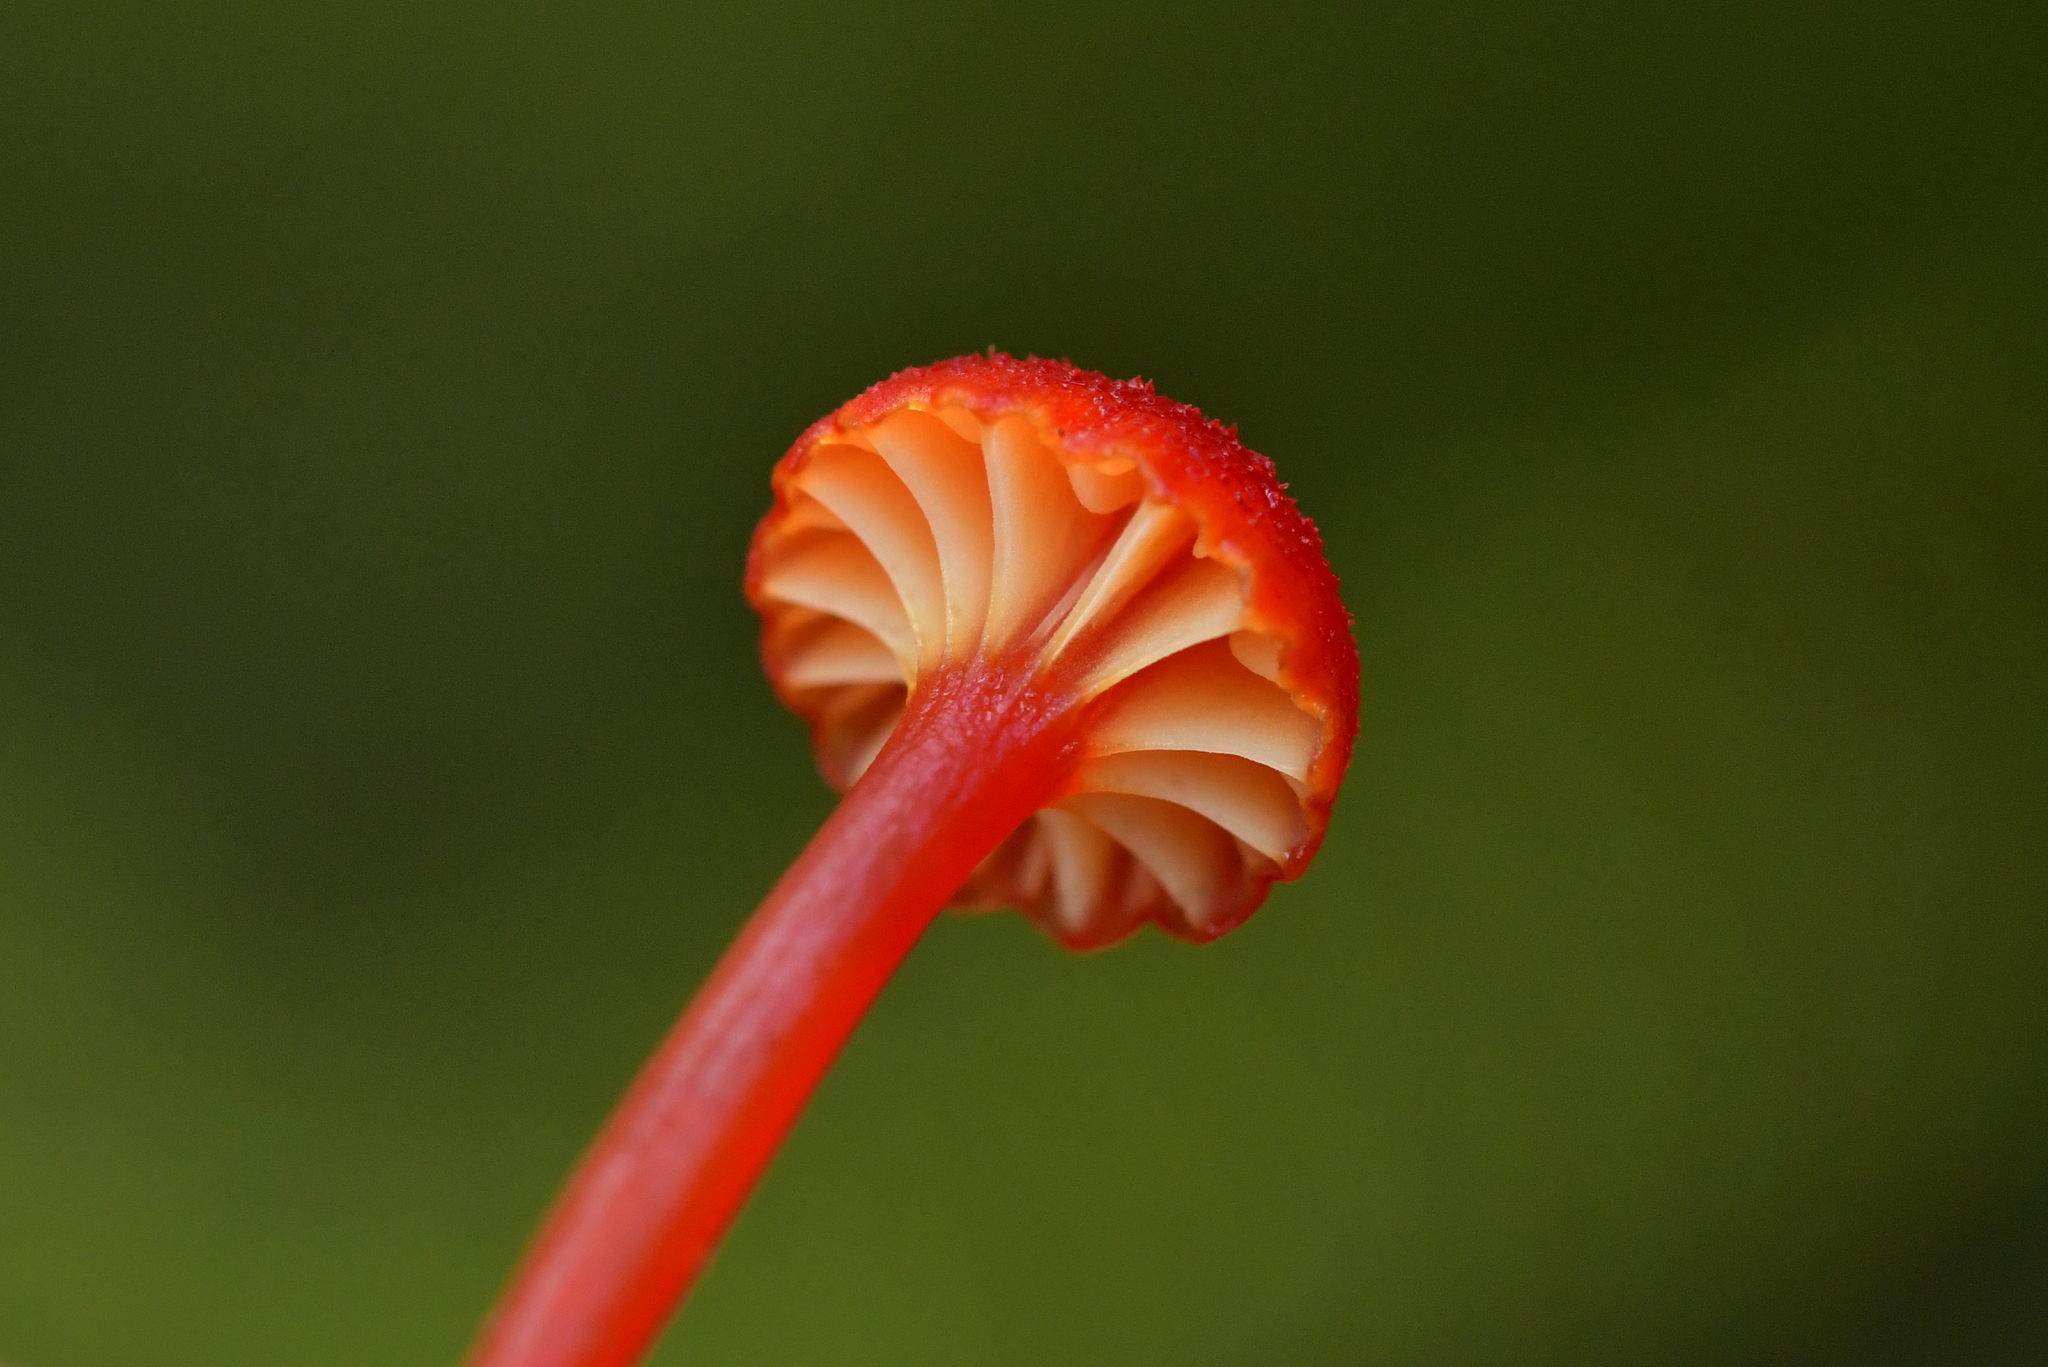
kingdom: Fungi
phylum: Basidiomycota
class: Agaricomycetes
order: Agaricales
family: Hygrophoraceae
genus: Hygrocybe
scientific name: Hygrocybe cantharellus
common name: Goblet waxcap
